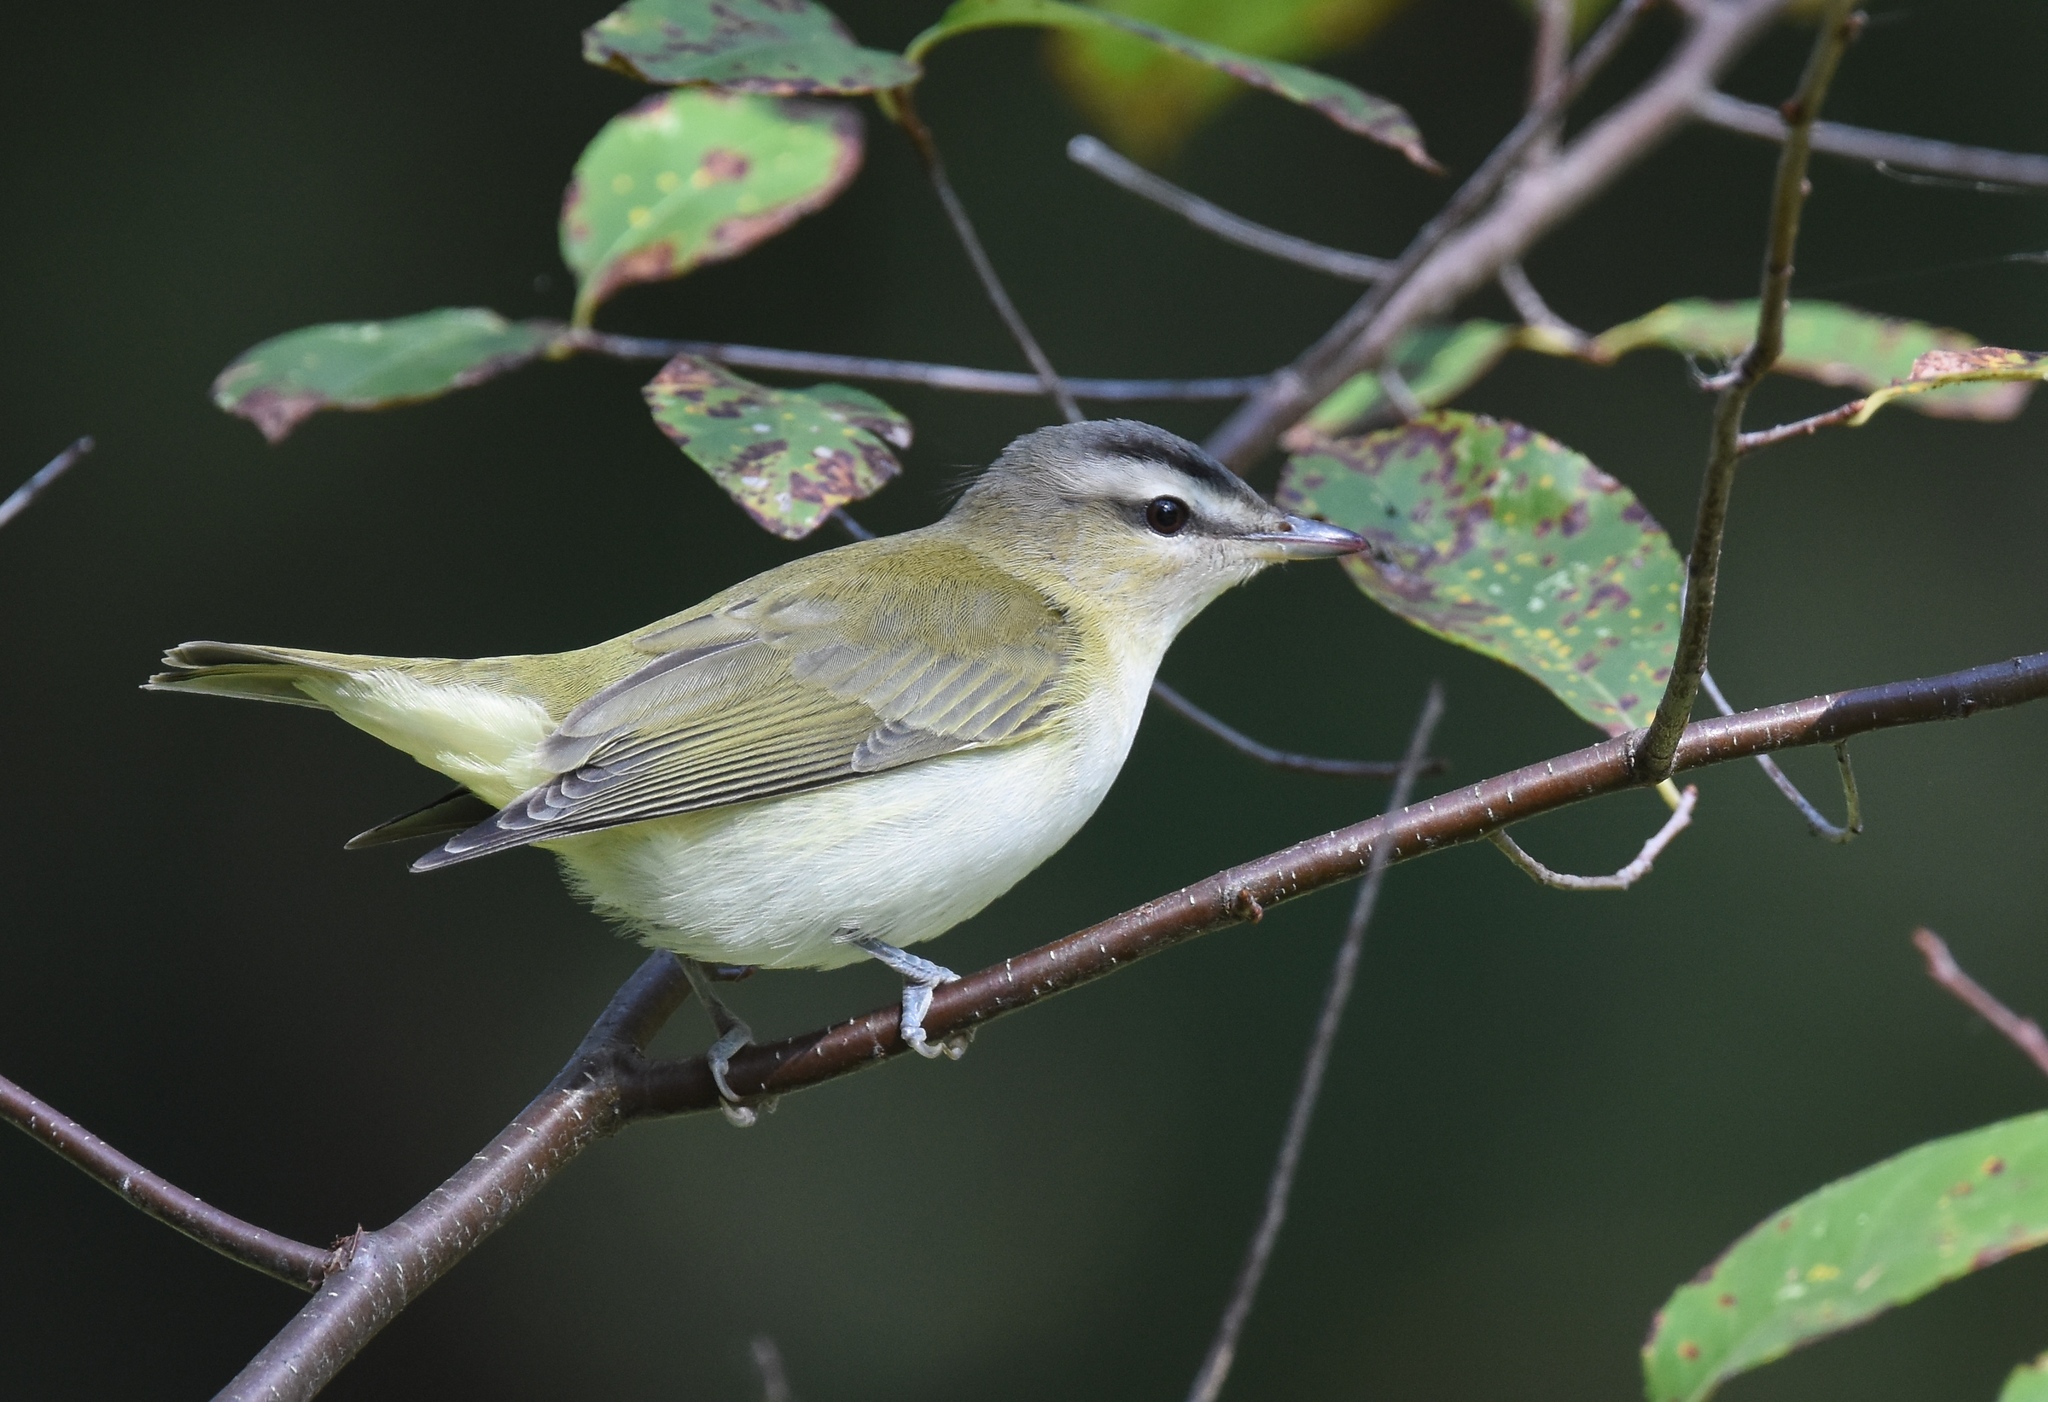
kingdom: Animalia
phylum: Chordata
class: Aves
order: Passeriformes
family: Vireonidae
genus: Vireo
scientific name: Vireo olivaceus
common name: Red-eyed vireo
